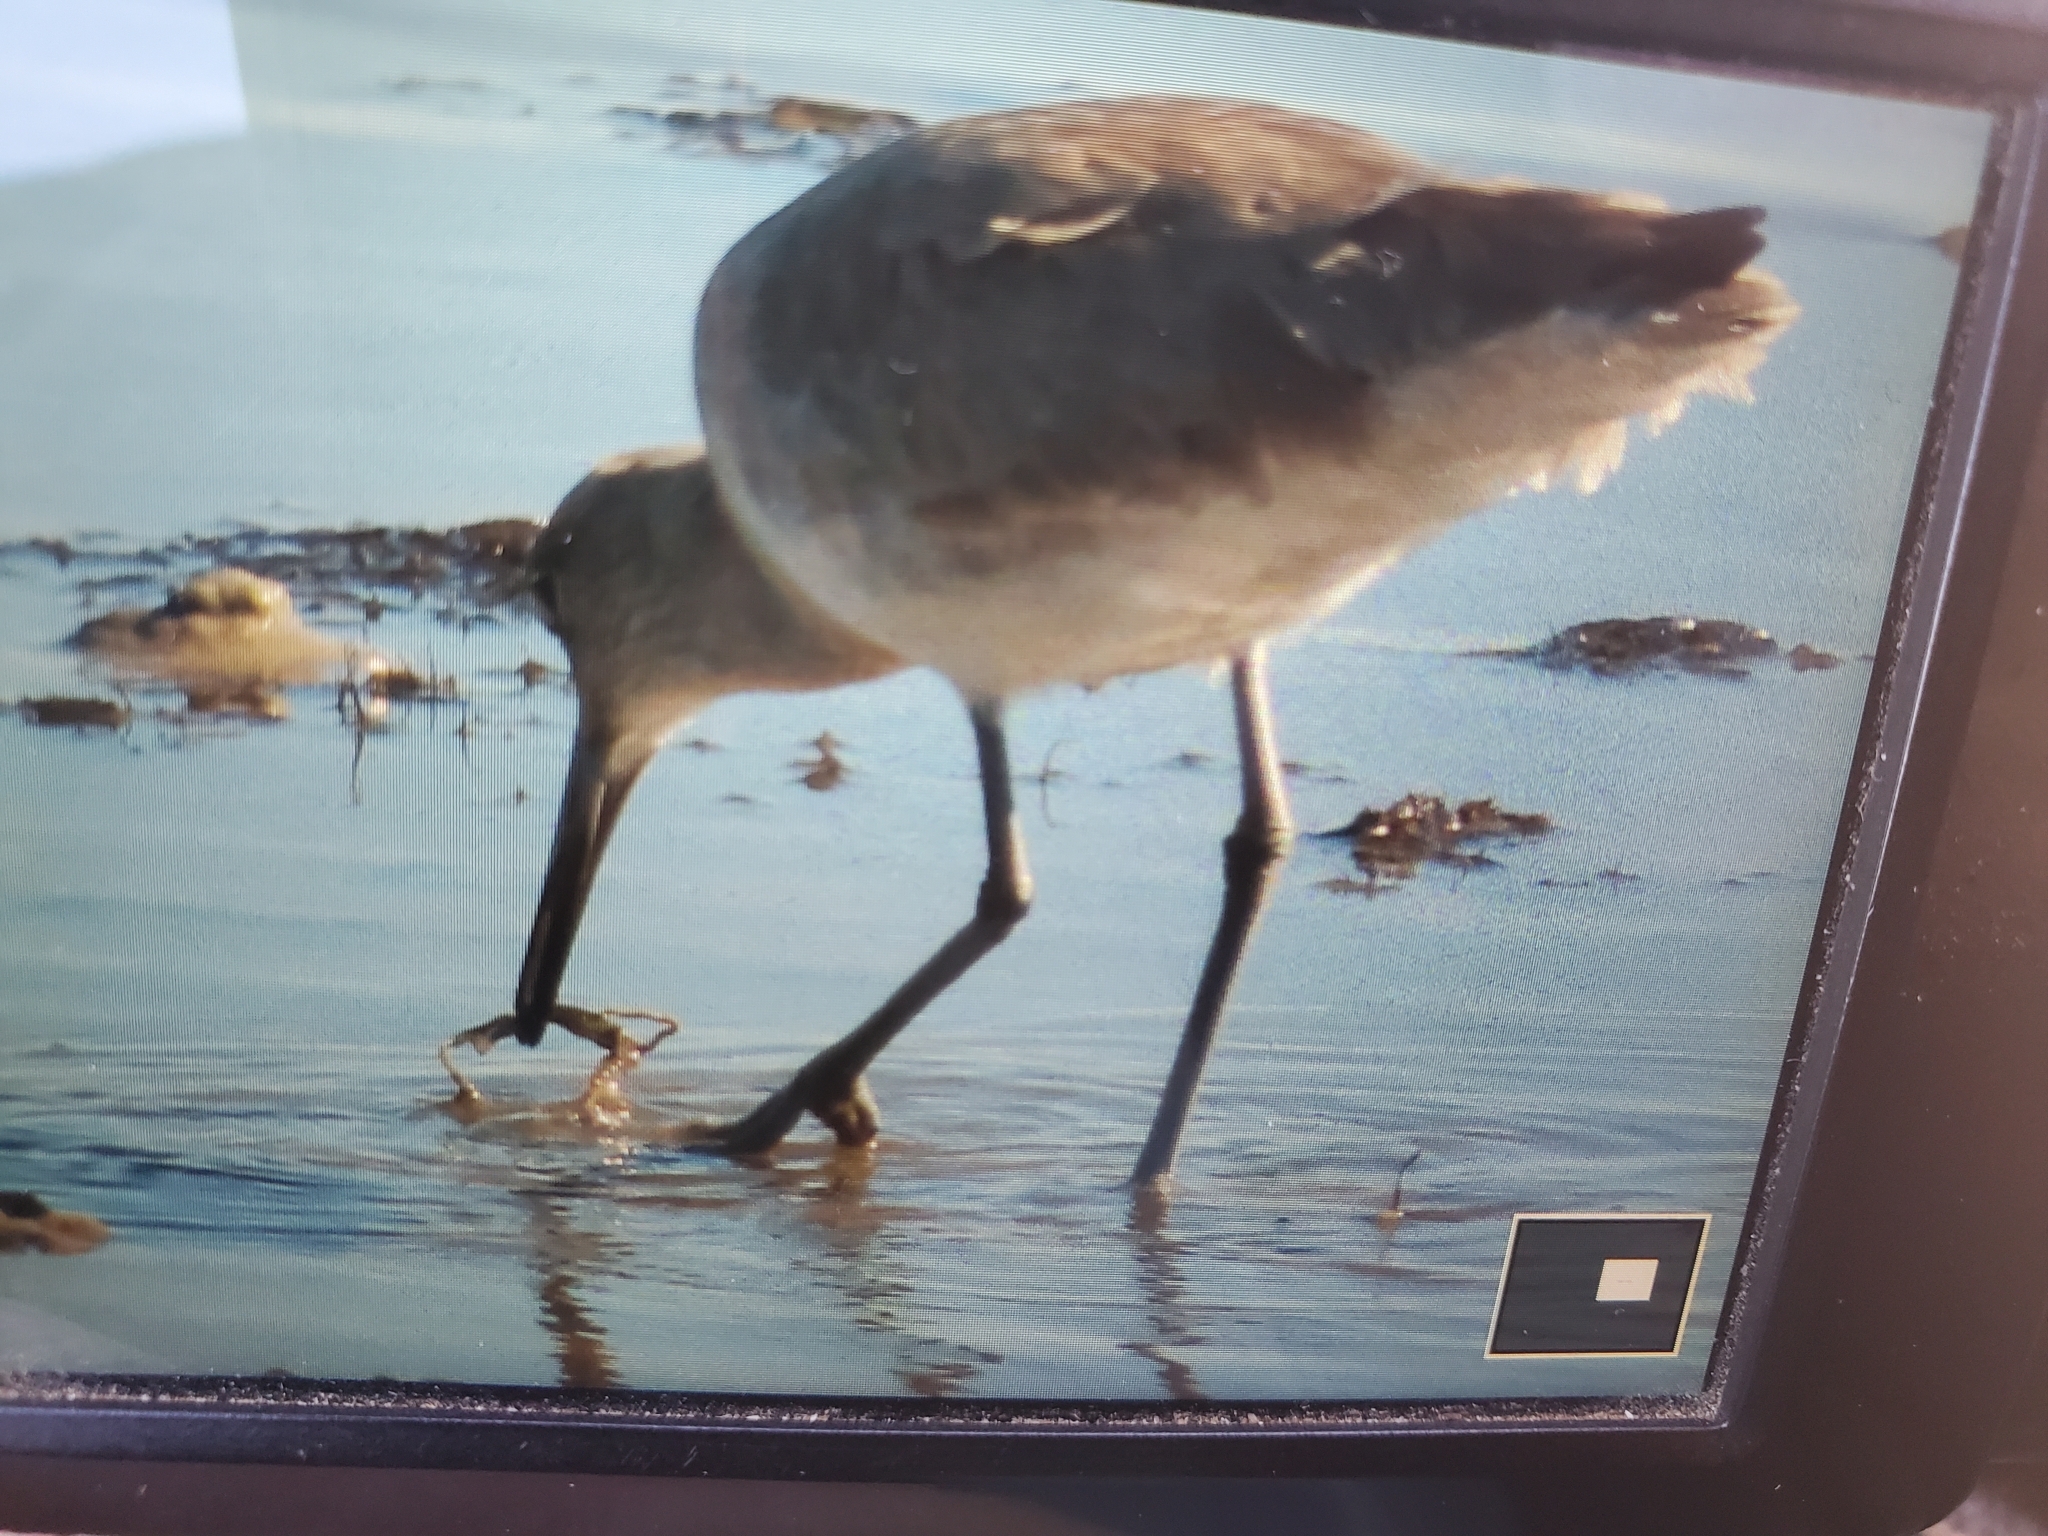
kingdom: Animalia
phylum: Chordata
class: Aves
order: Charadriiformes
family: Scolopacidae
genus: Tringa
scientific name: Tringa semipalmata
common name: Willet
